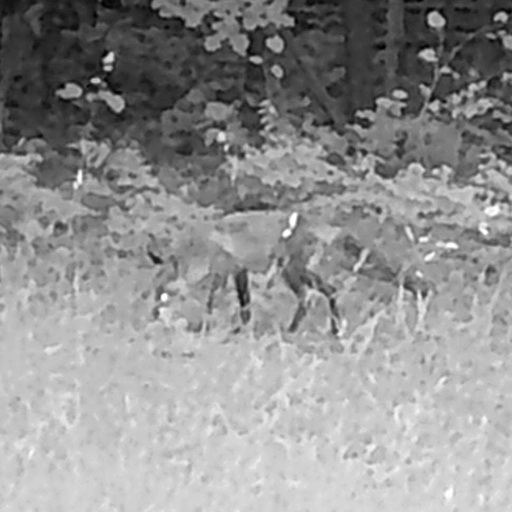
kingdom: Animalia
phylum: Chordata
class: Mammalia
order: Carnivora
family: Canidae
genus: Vulpes
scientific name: Vulpes vulpes
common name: Red fox
